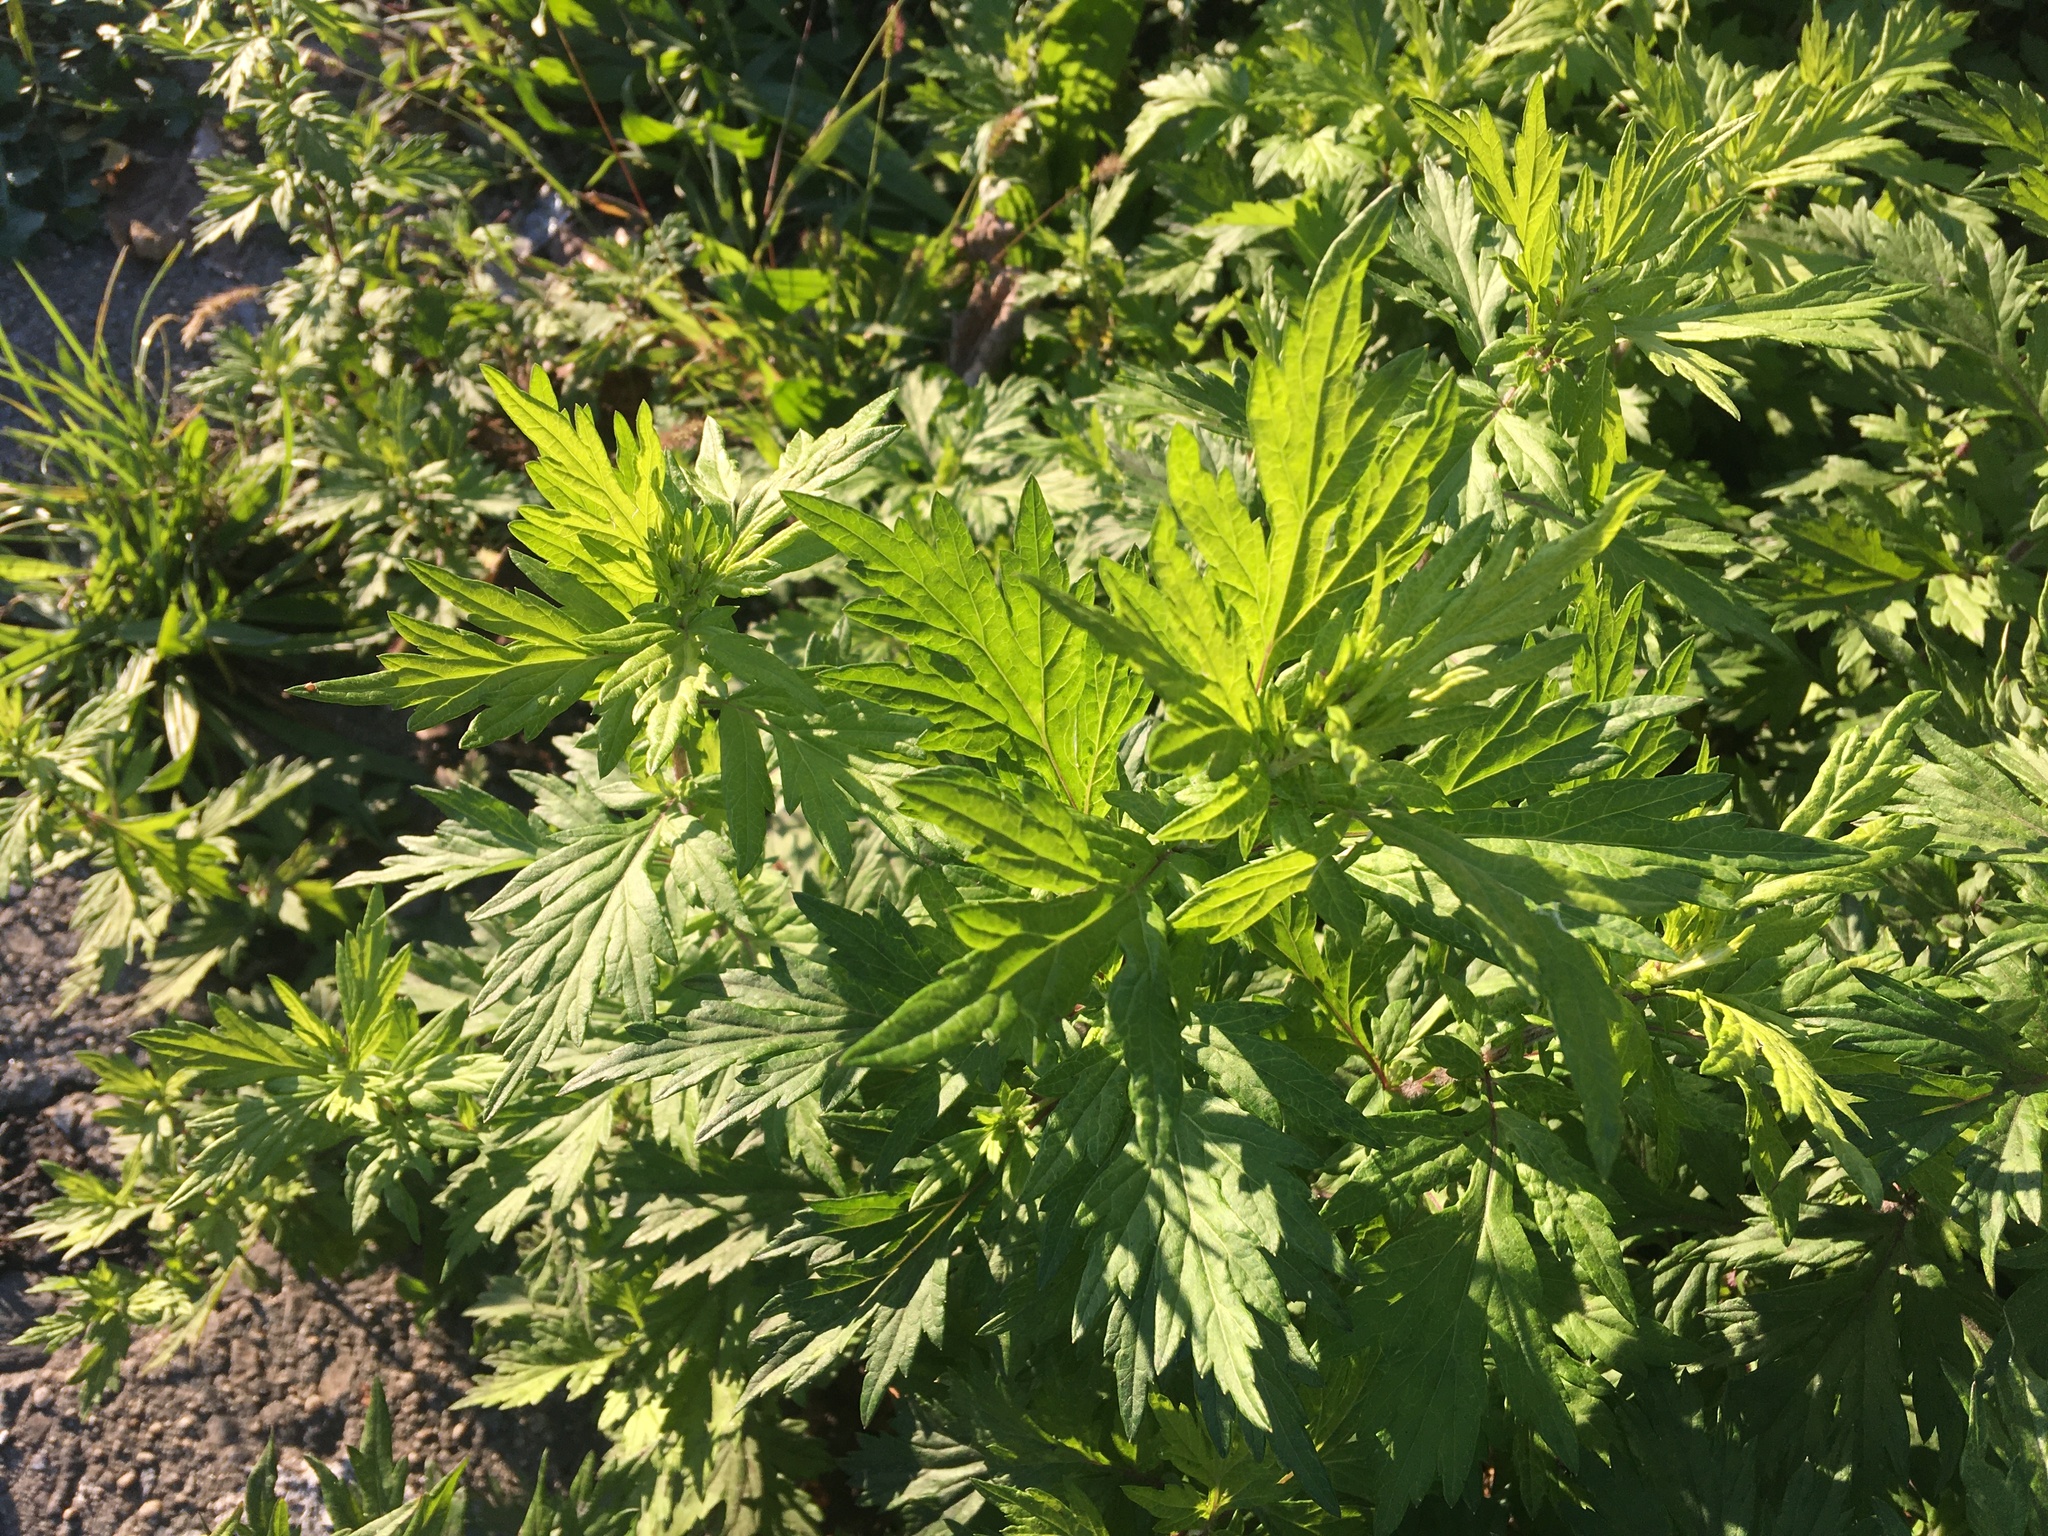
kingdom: Plantae
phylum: Tracheophyta
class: Magnoliopsida
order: Asterales
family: Asteraceae
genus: Artemisia
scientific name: Artemisia vulgaris
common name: Mugwort
